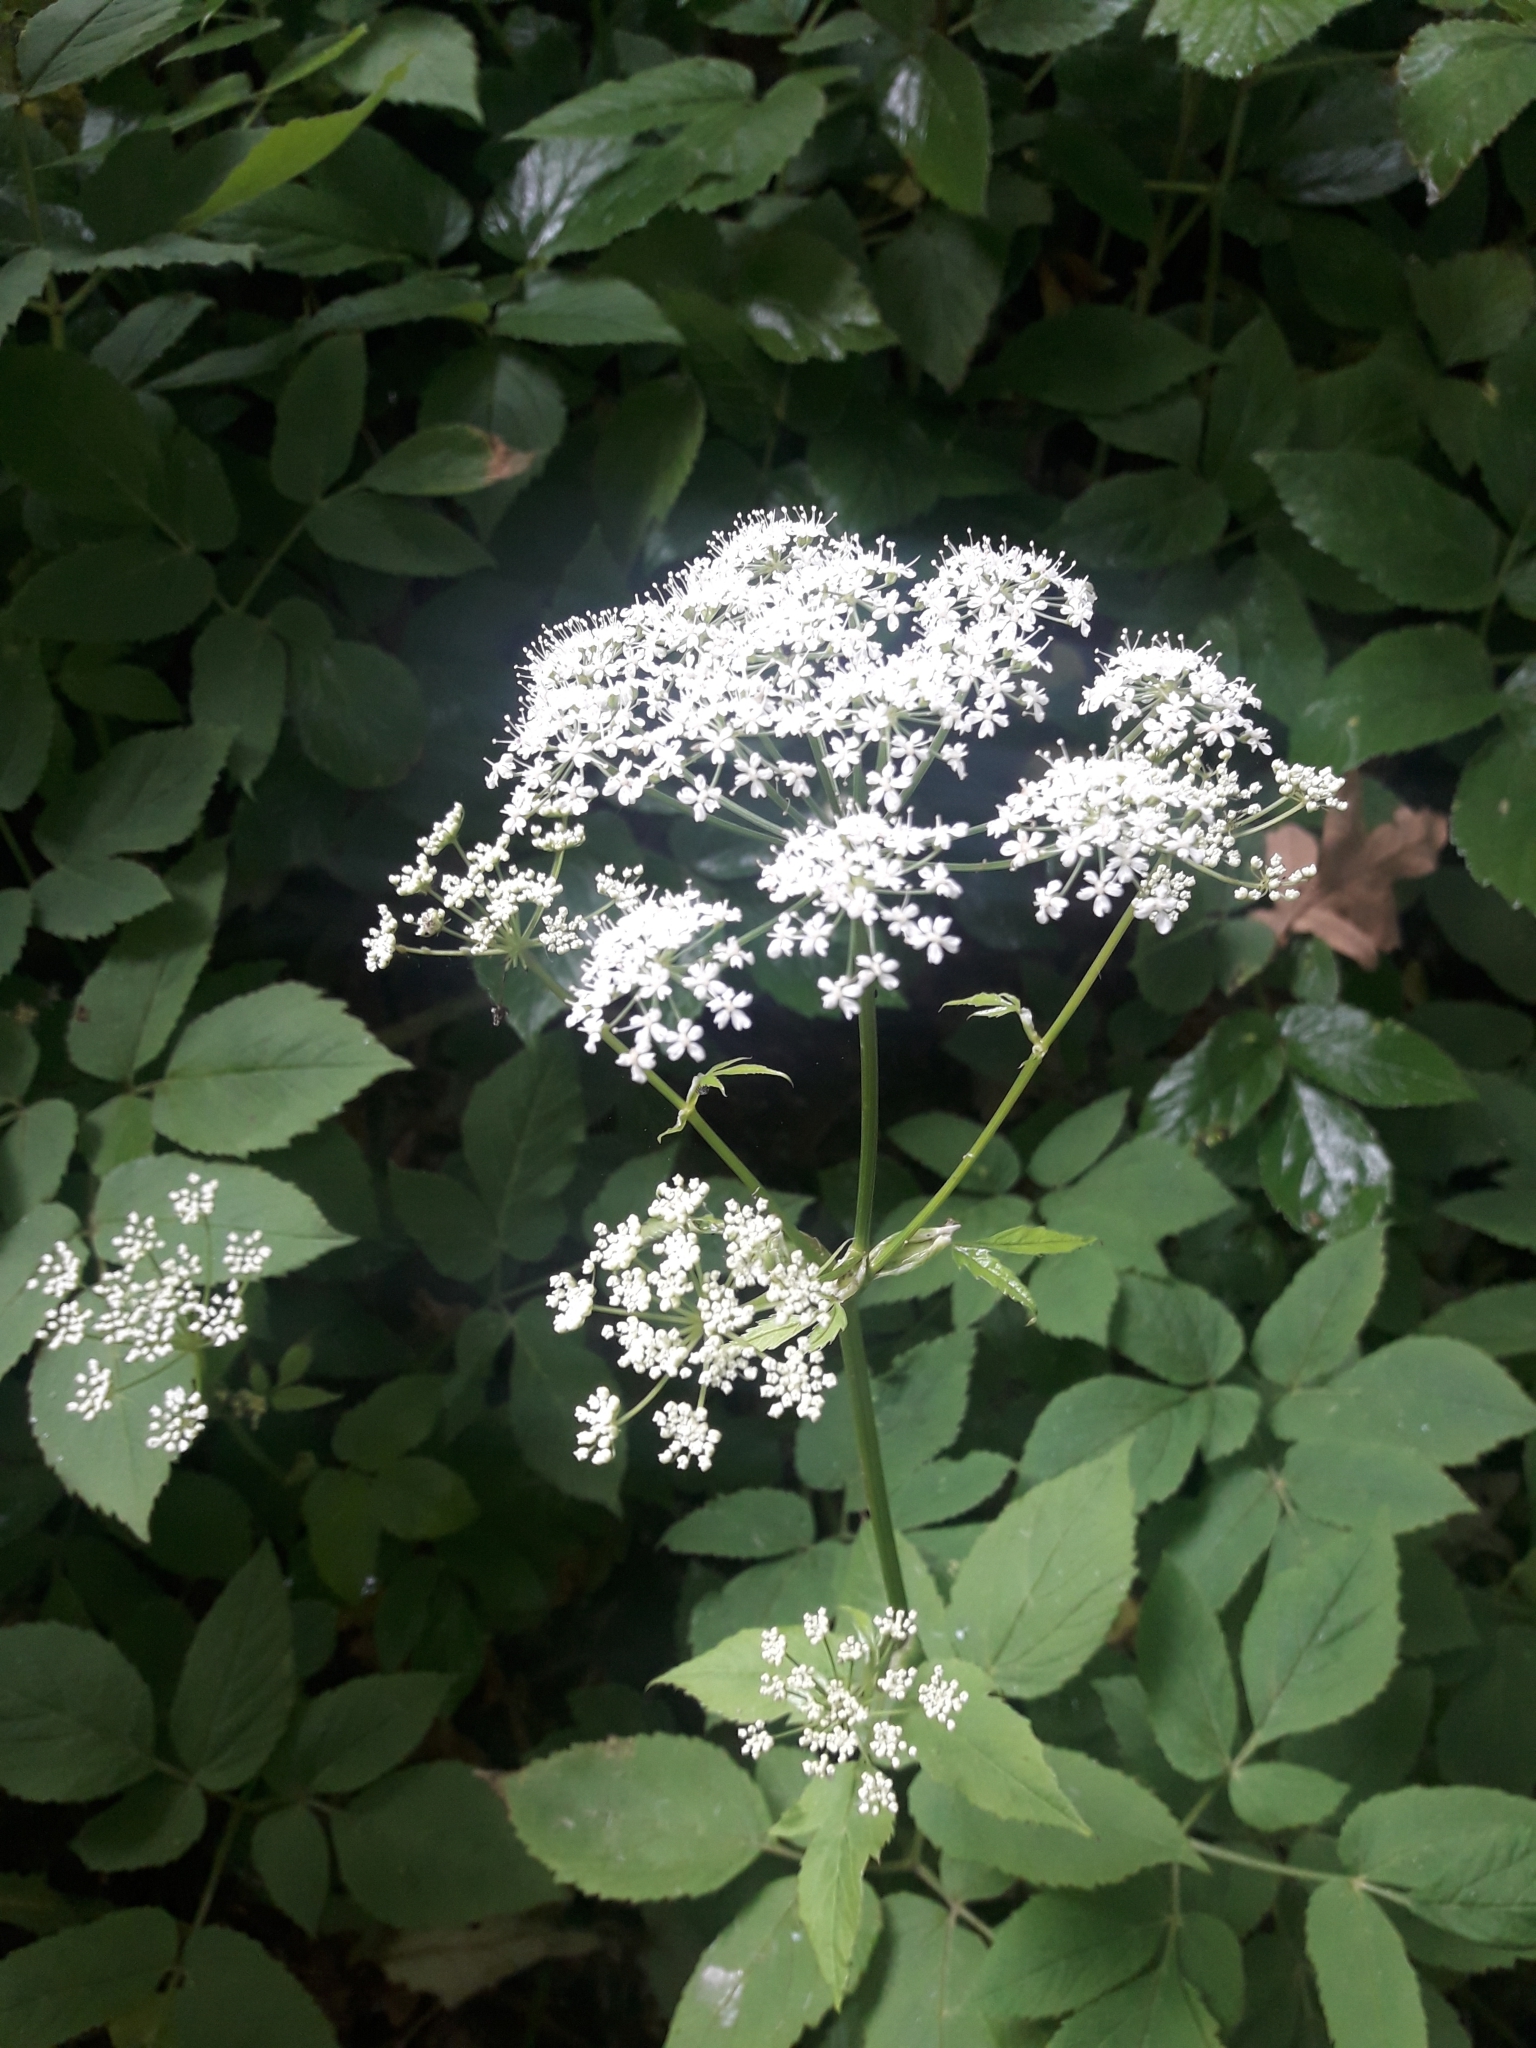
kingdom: Plantae
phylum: Tracheophyta
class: Magnoliopsida
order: Apiales
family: Apiaceae
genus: Aegopodium
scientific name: Aegopodium podagraria
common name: Ground-elder
